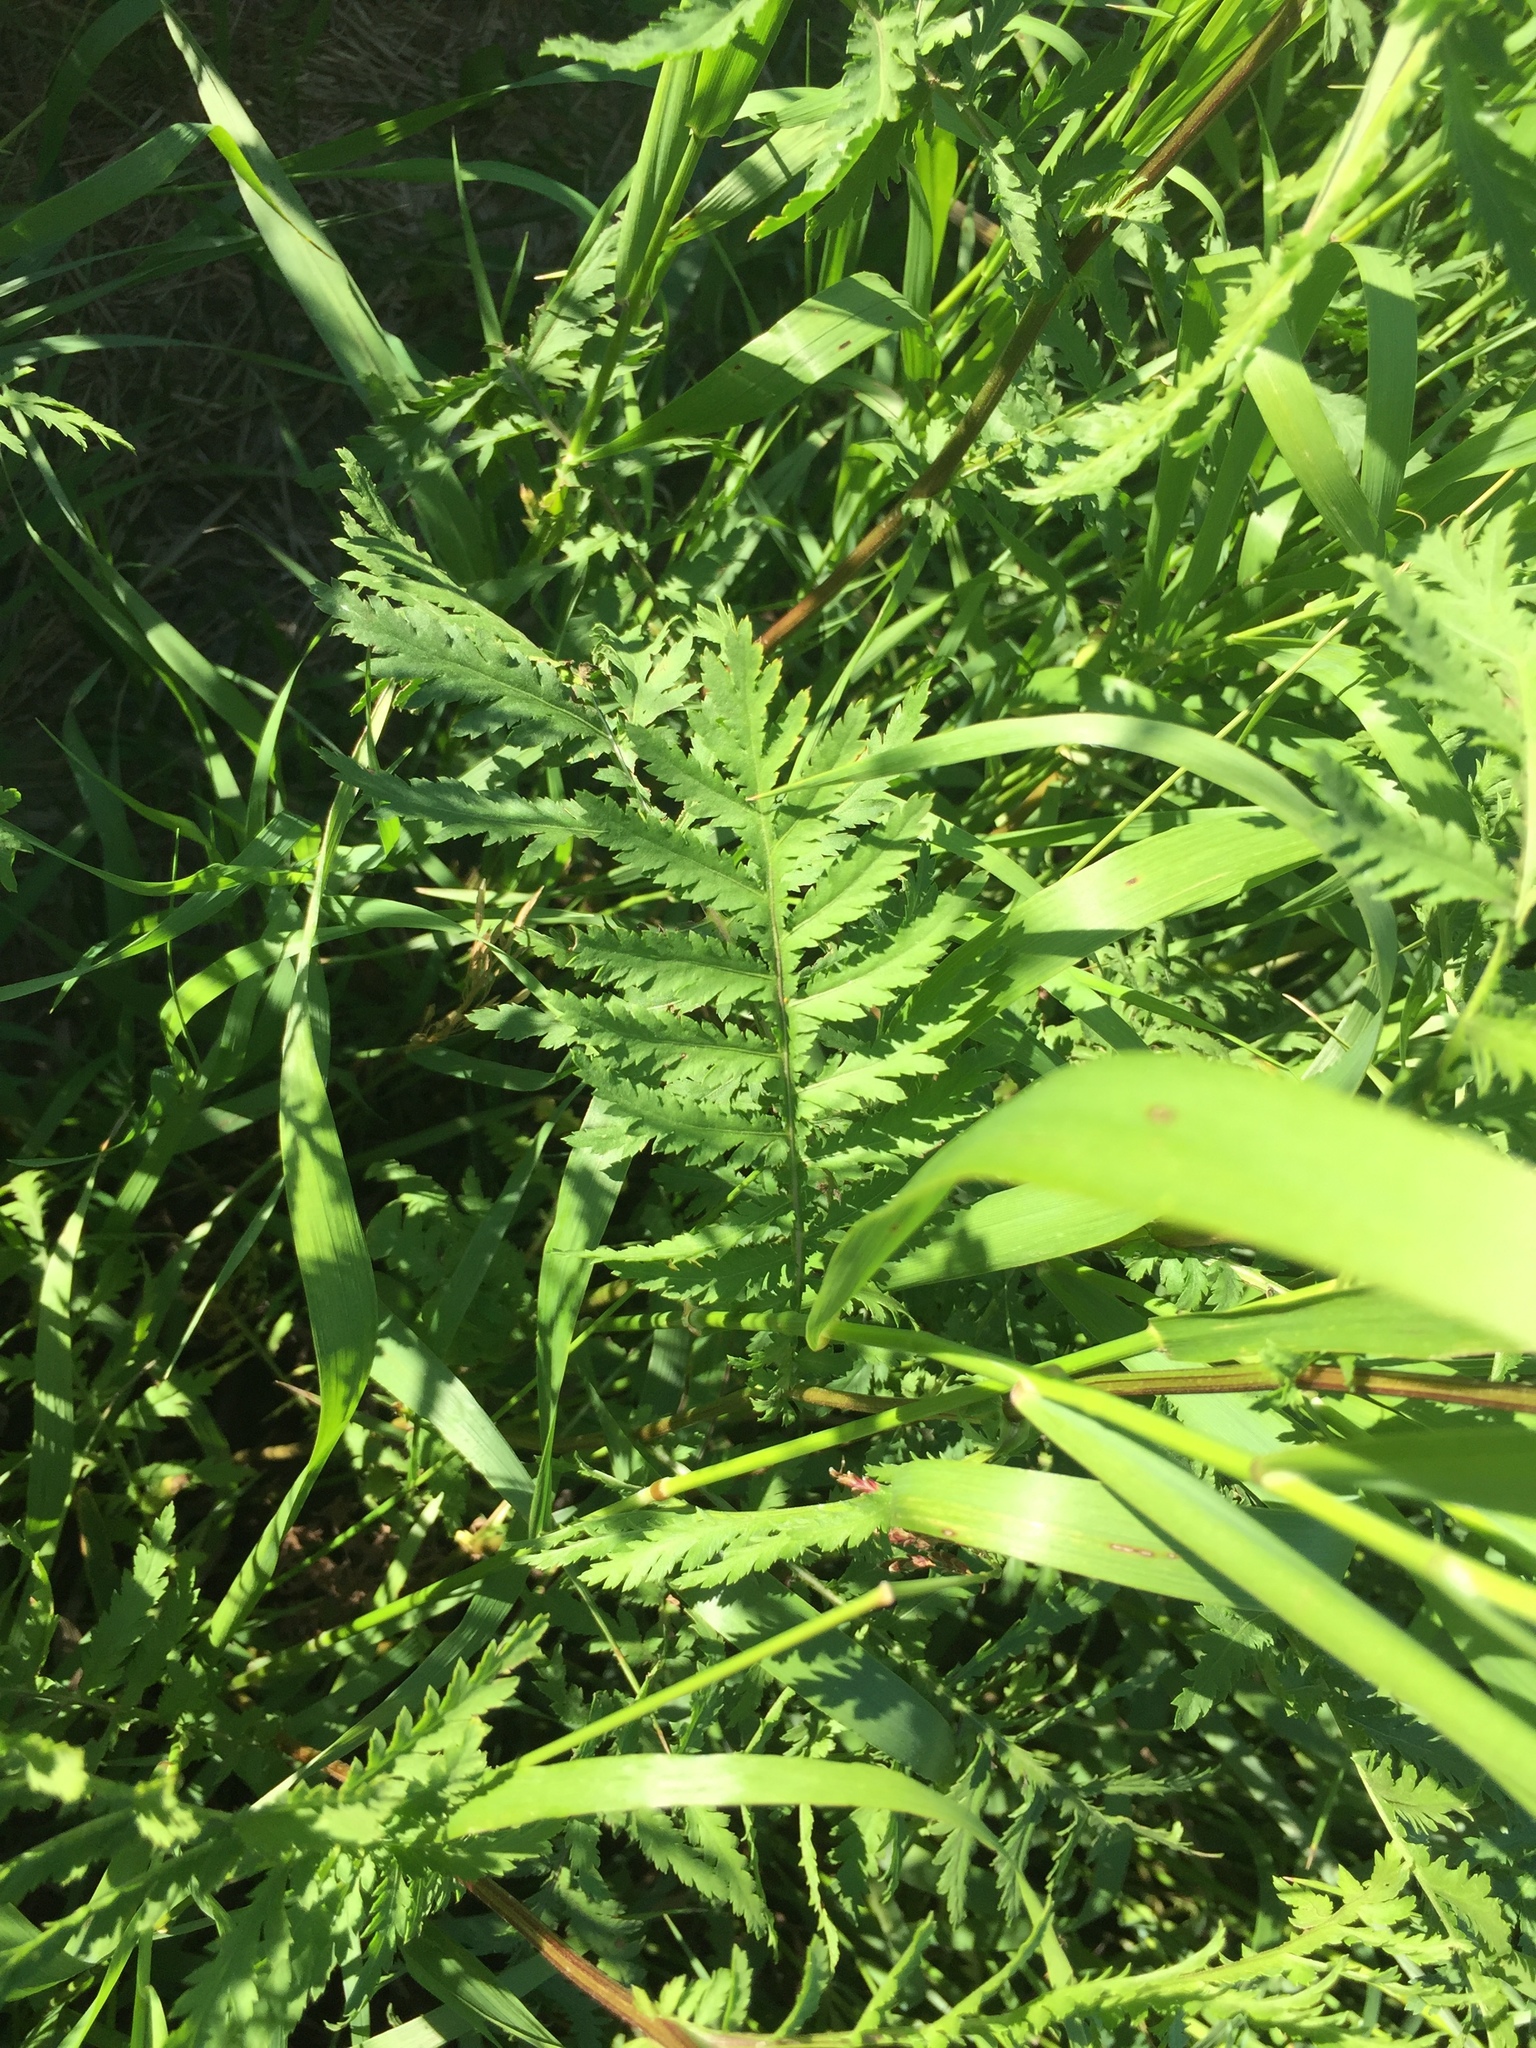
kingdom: Plantae
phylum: Tracheophyta
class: Magnoliopsida
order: Asterales
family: Asteraceae
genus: Tanacetum
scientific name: Tanacetum vulgare
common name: Common tansy
